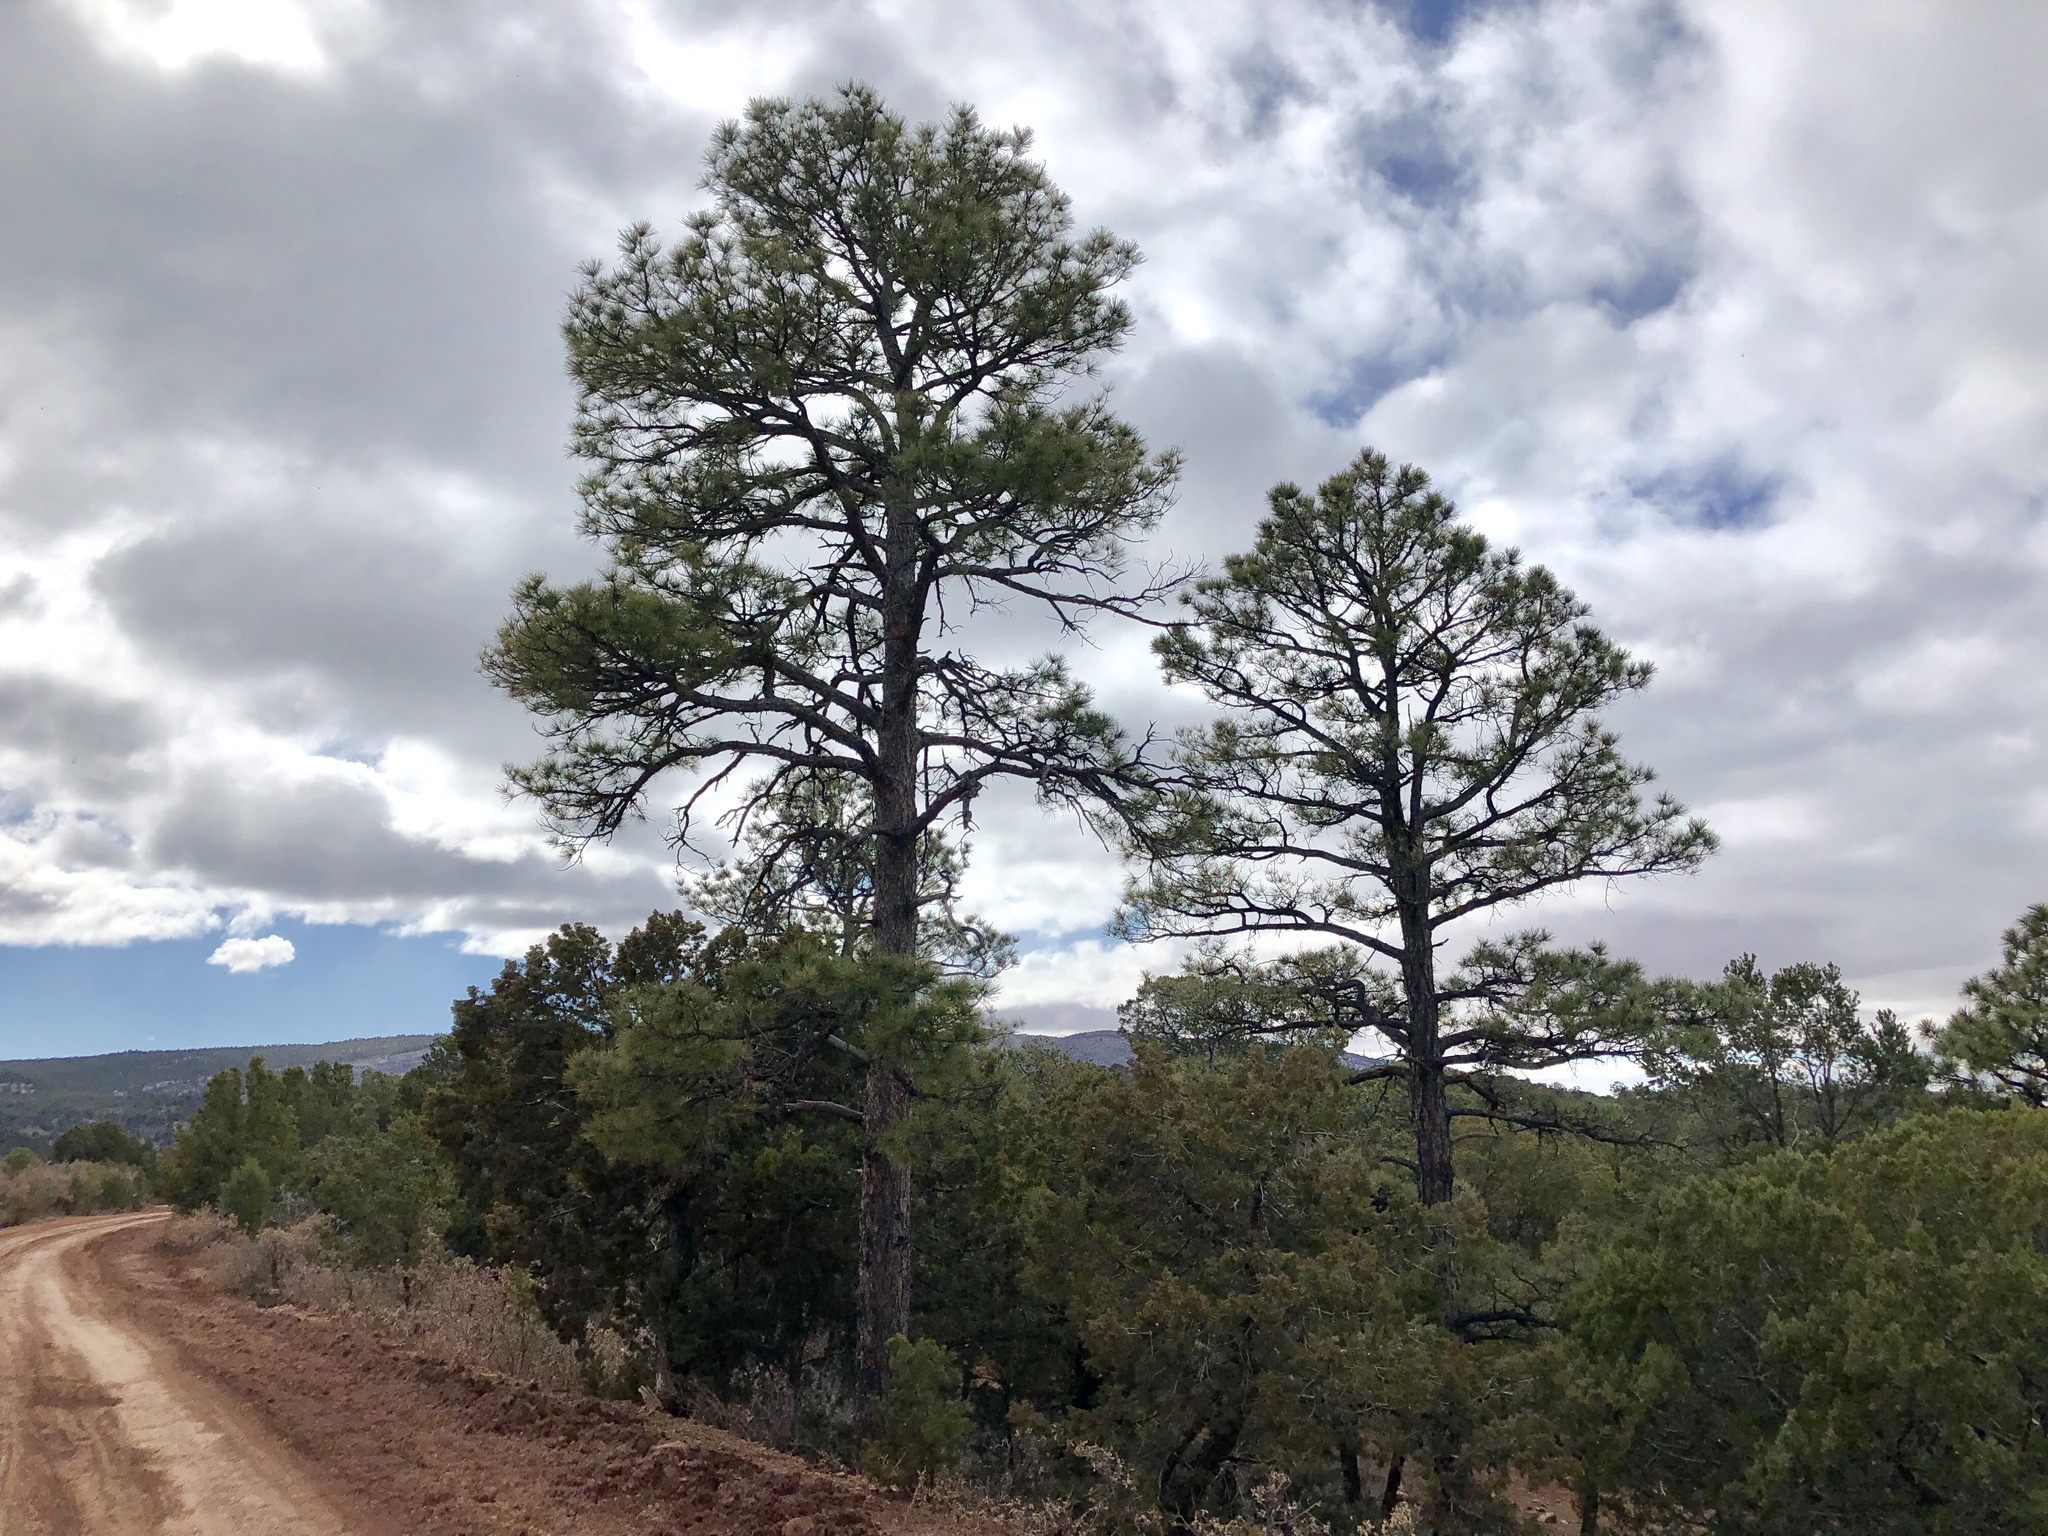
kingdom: Plantae
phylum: Tracheophyta
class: Pinopsida
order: Pinales
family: Pinaceae
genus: Pinus
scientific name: Pinus ponderosa
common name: Western yellow-pine
